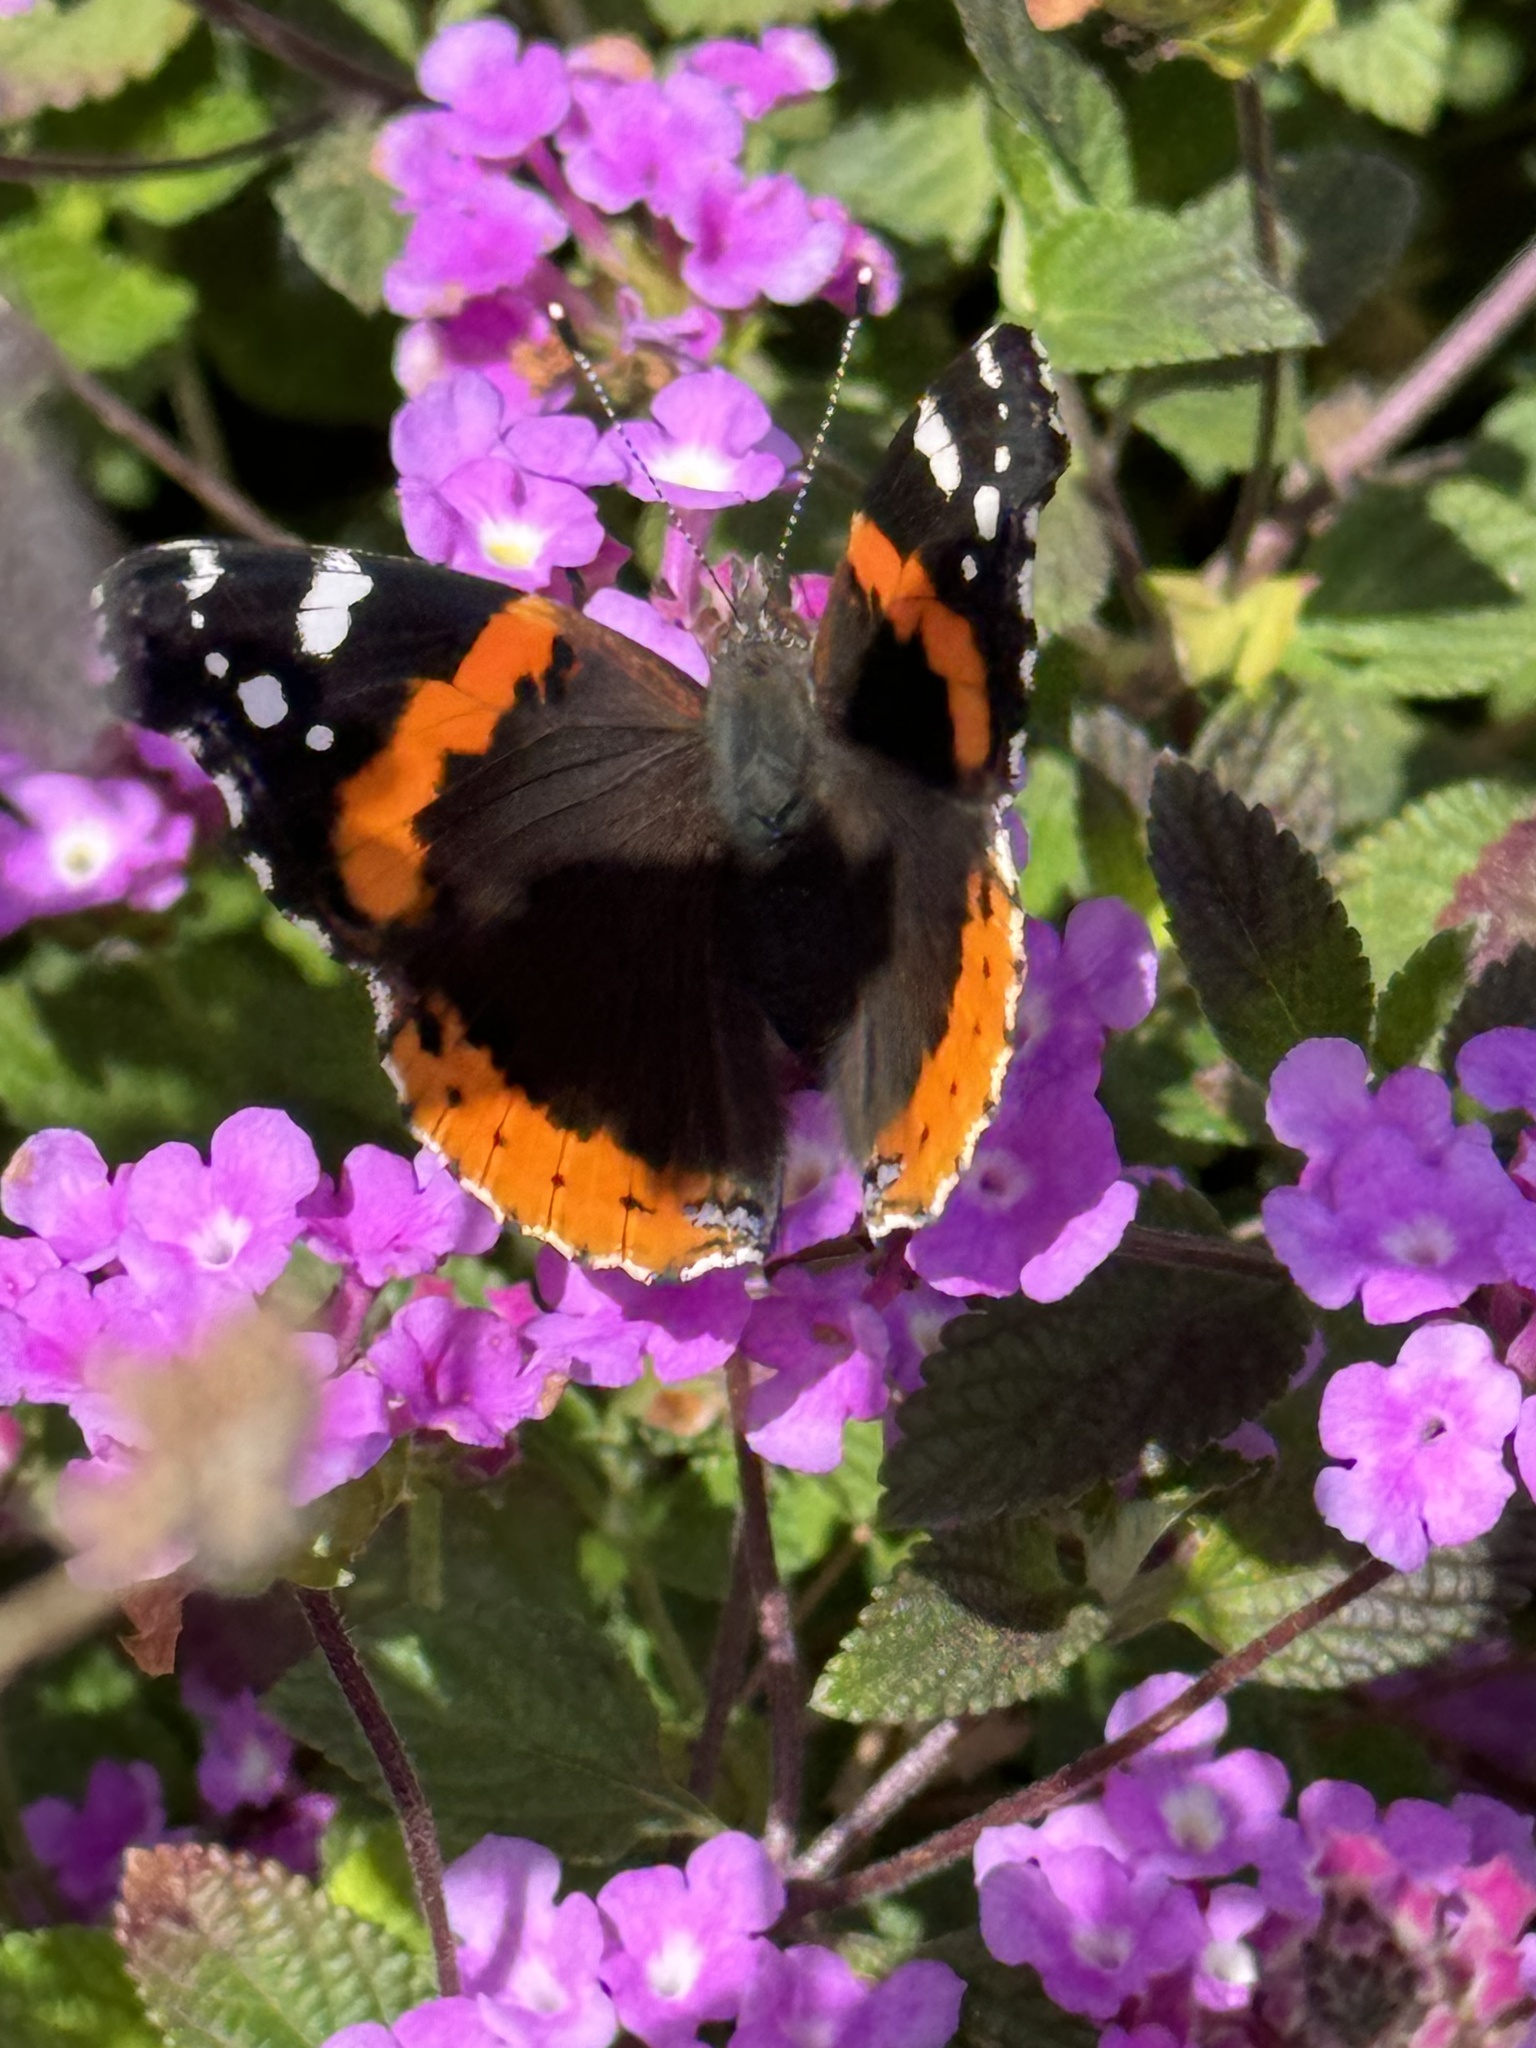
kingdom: Animalia
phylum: Arthropoda
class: Insecta
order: Lepidoptera
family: Nymphalidae
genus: Vanessa
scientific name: Vanessa atalanta
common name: Red admiral
